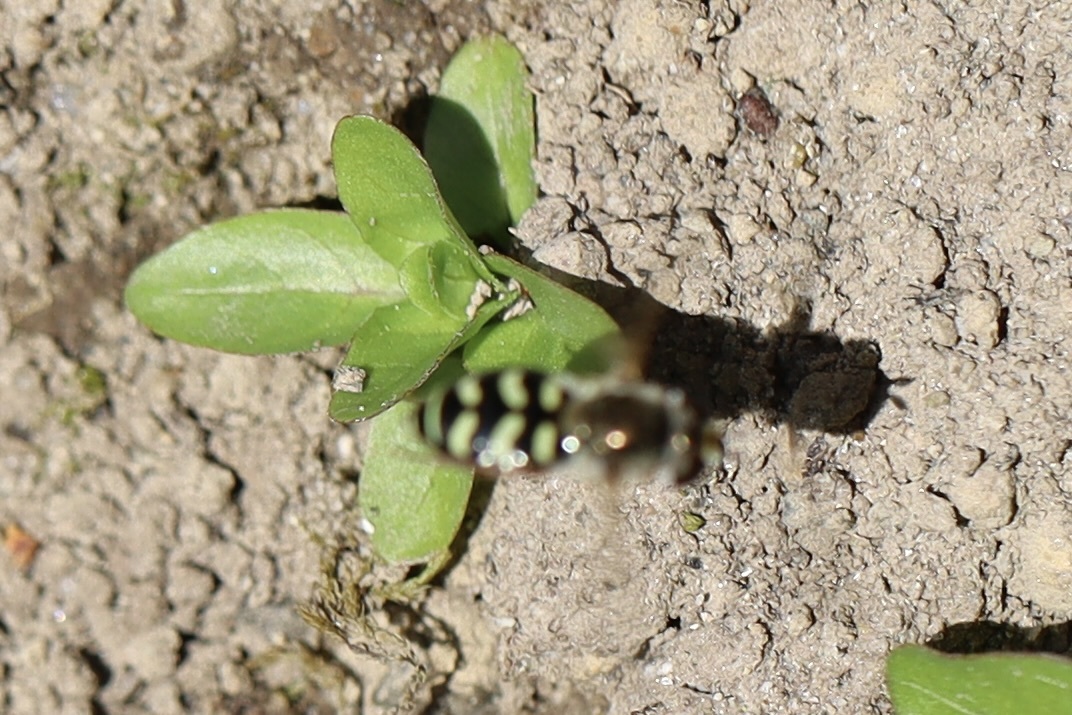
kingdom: Animalia
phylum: Arthropoda
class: Insecta
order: Diptera
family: Syrphidae
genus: Eupeodes
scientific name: Eupeodes volucris
